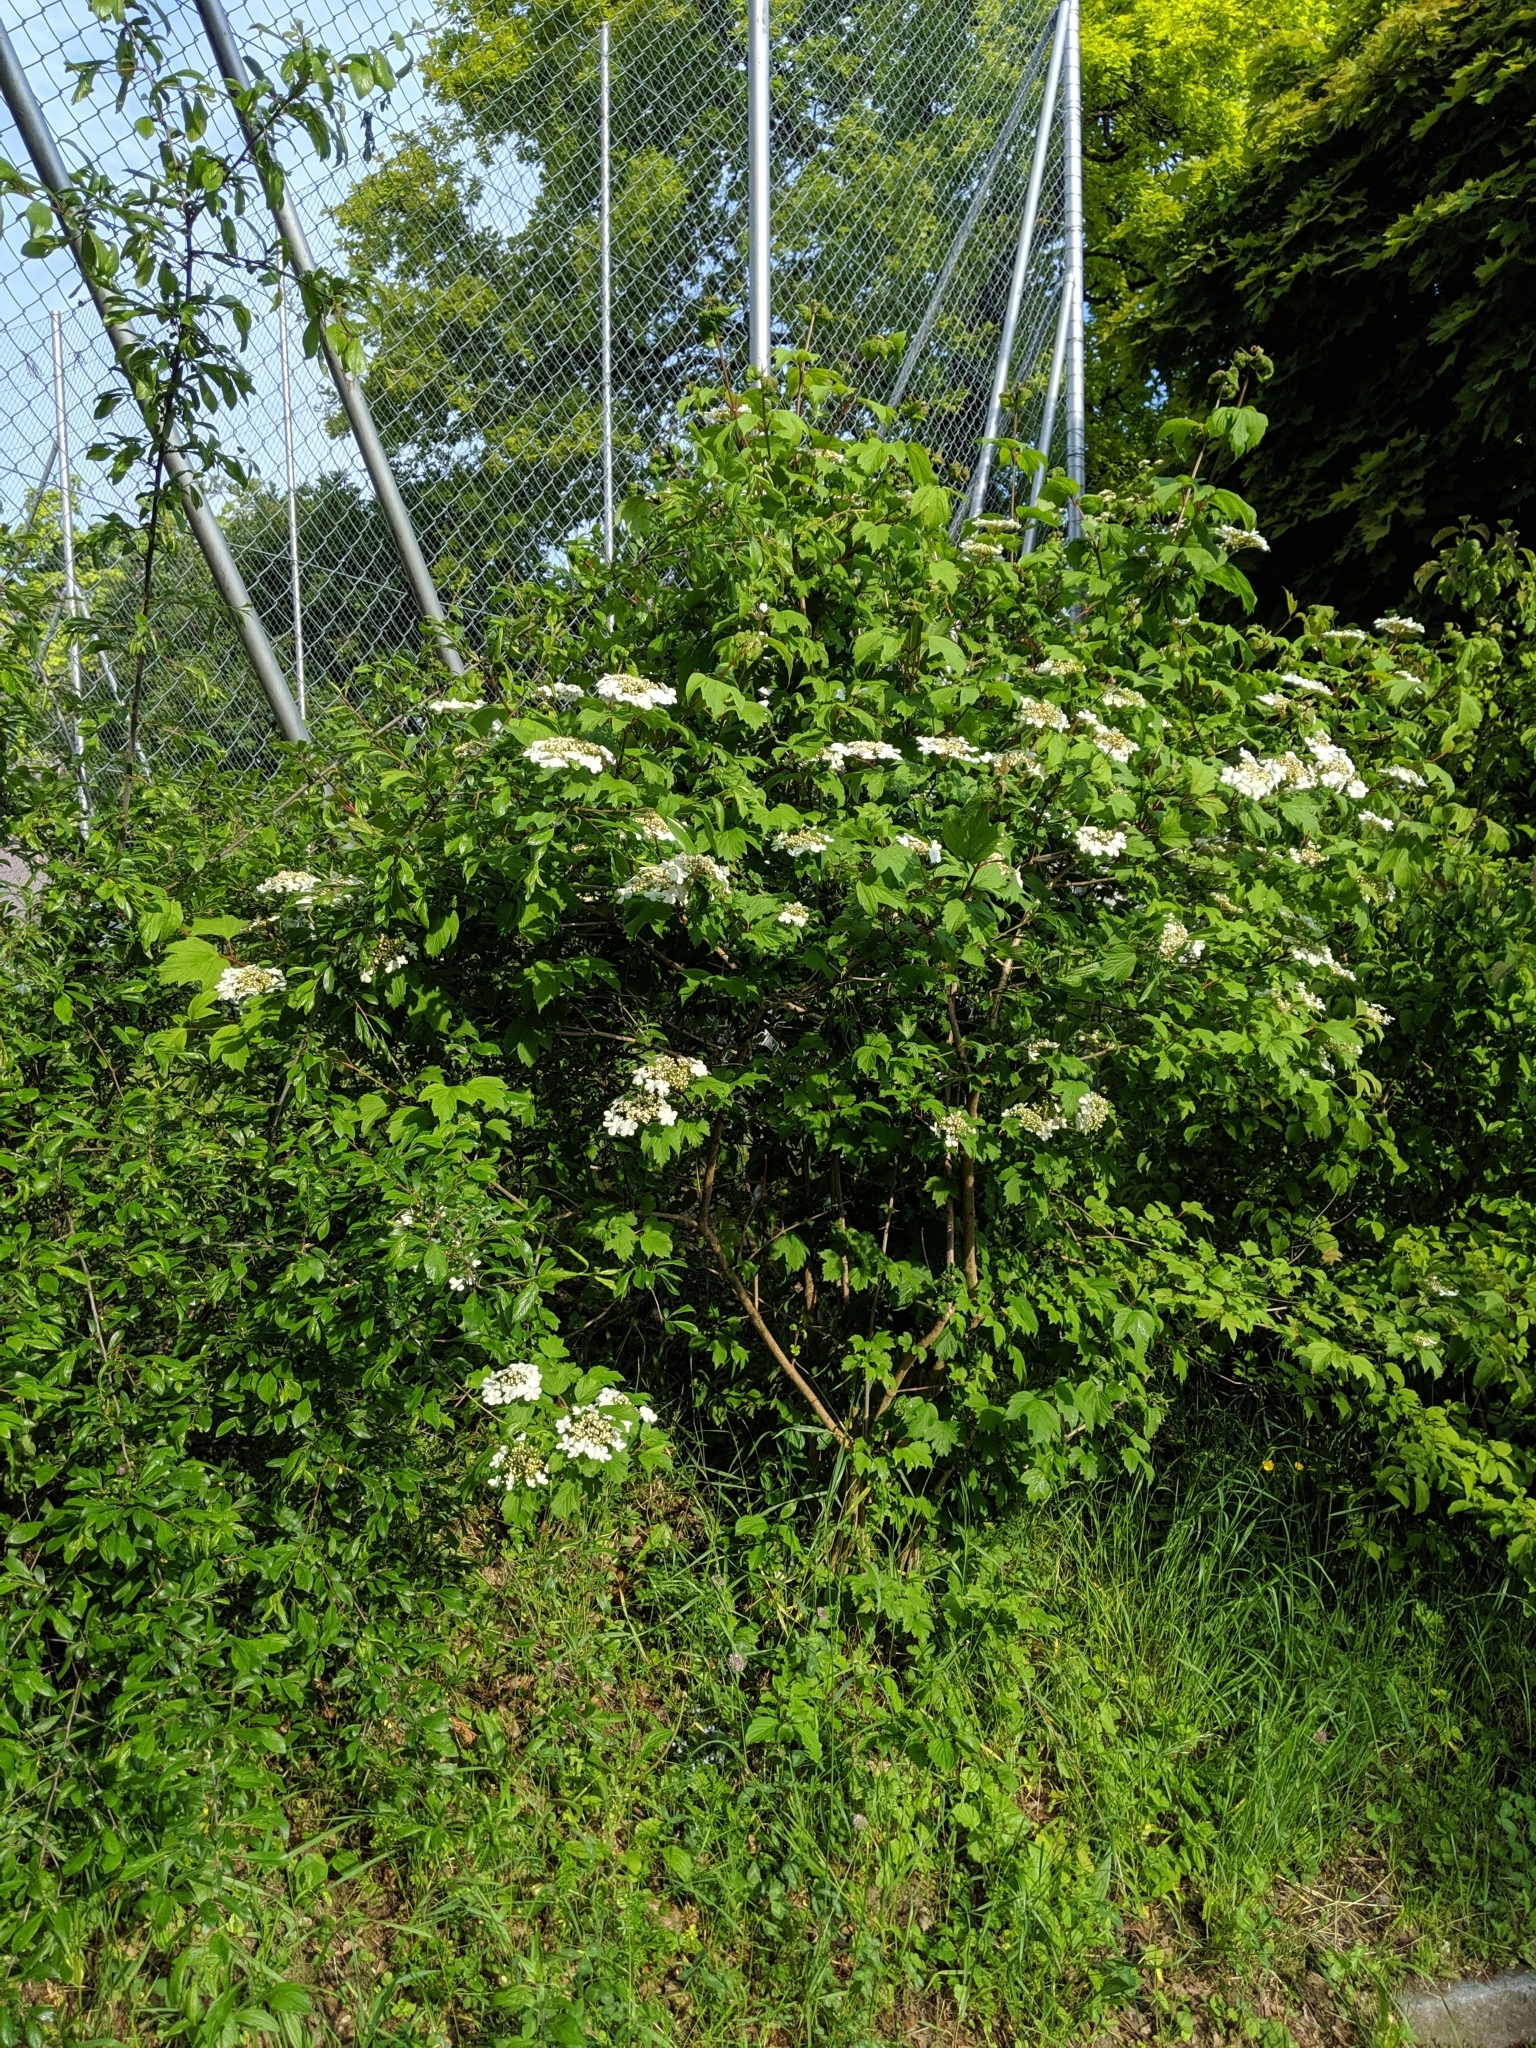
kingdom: Plantae
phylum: Tracheophyta
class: Magnoliopsida
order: Dipsacales
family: Viburnaceae
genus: Viburnum
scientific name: Viburnum opulus
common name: Guelder-rose
